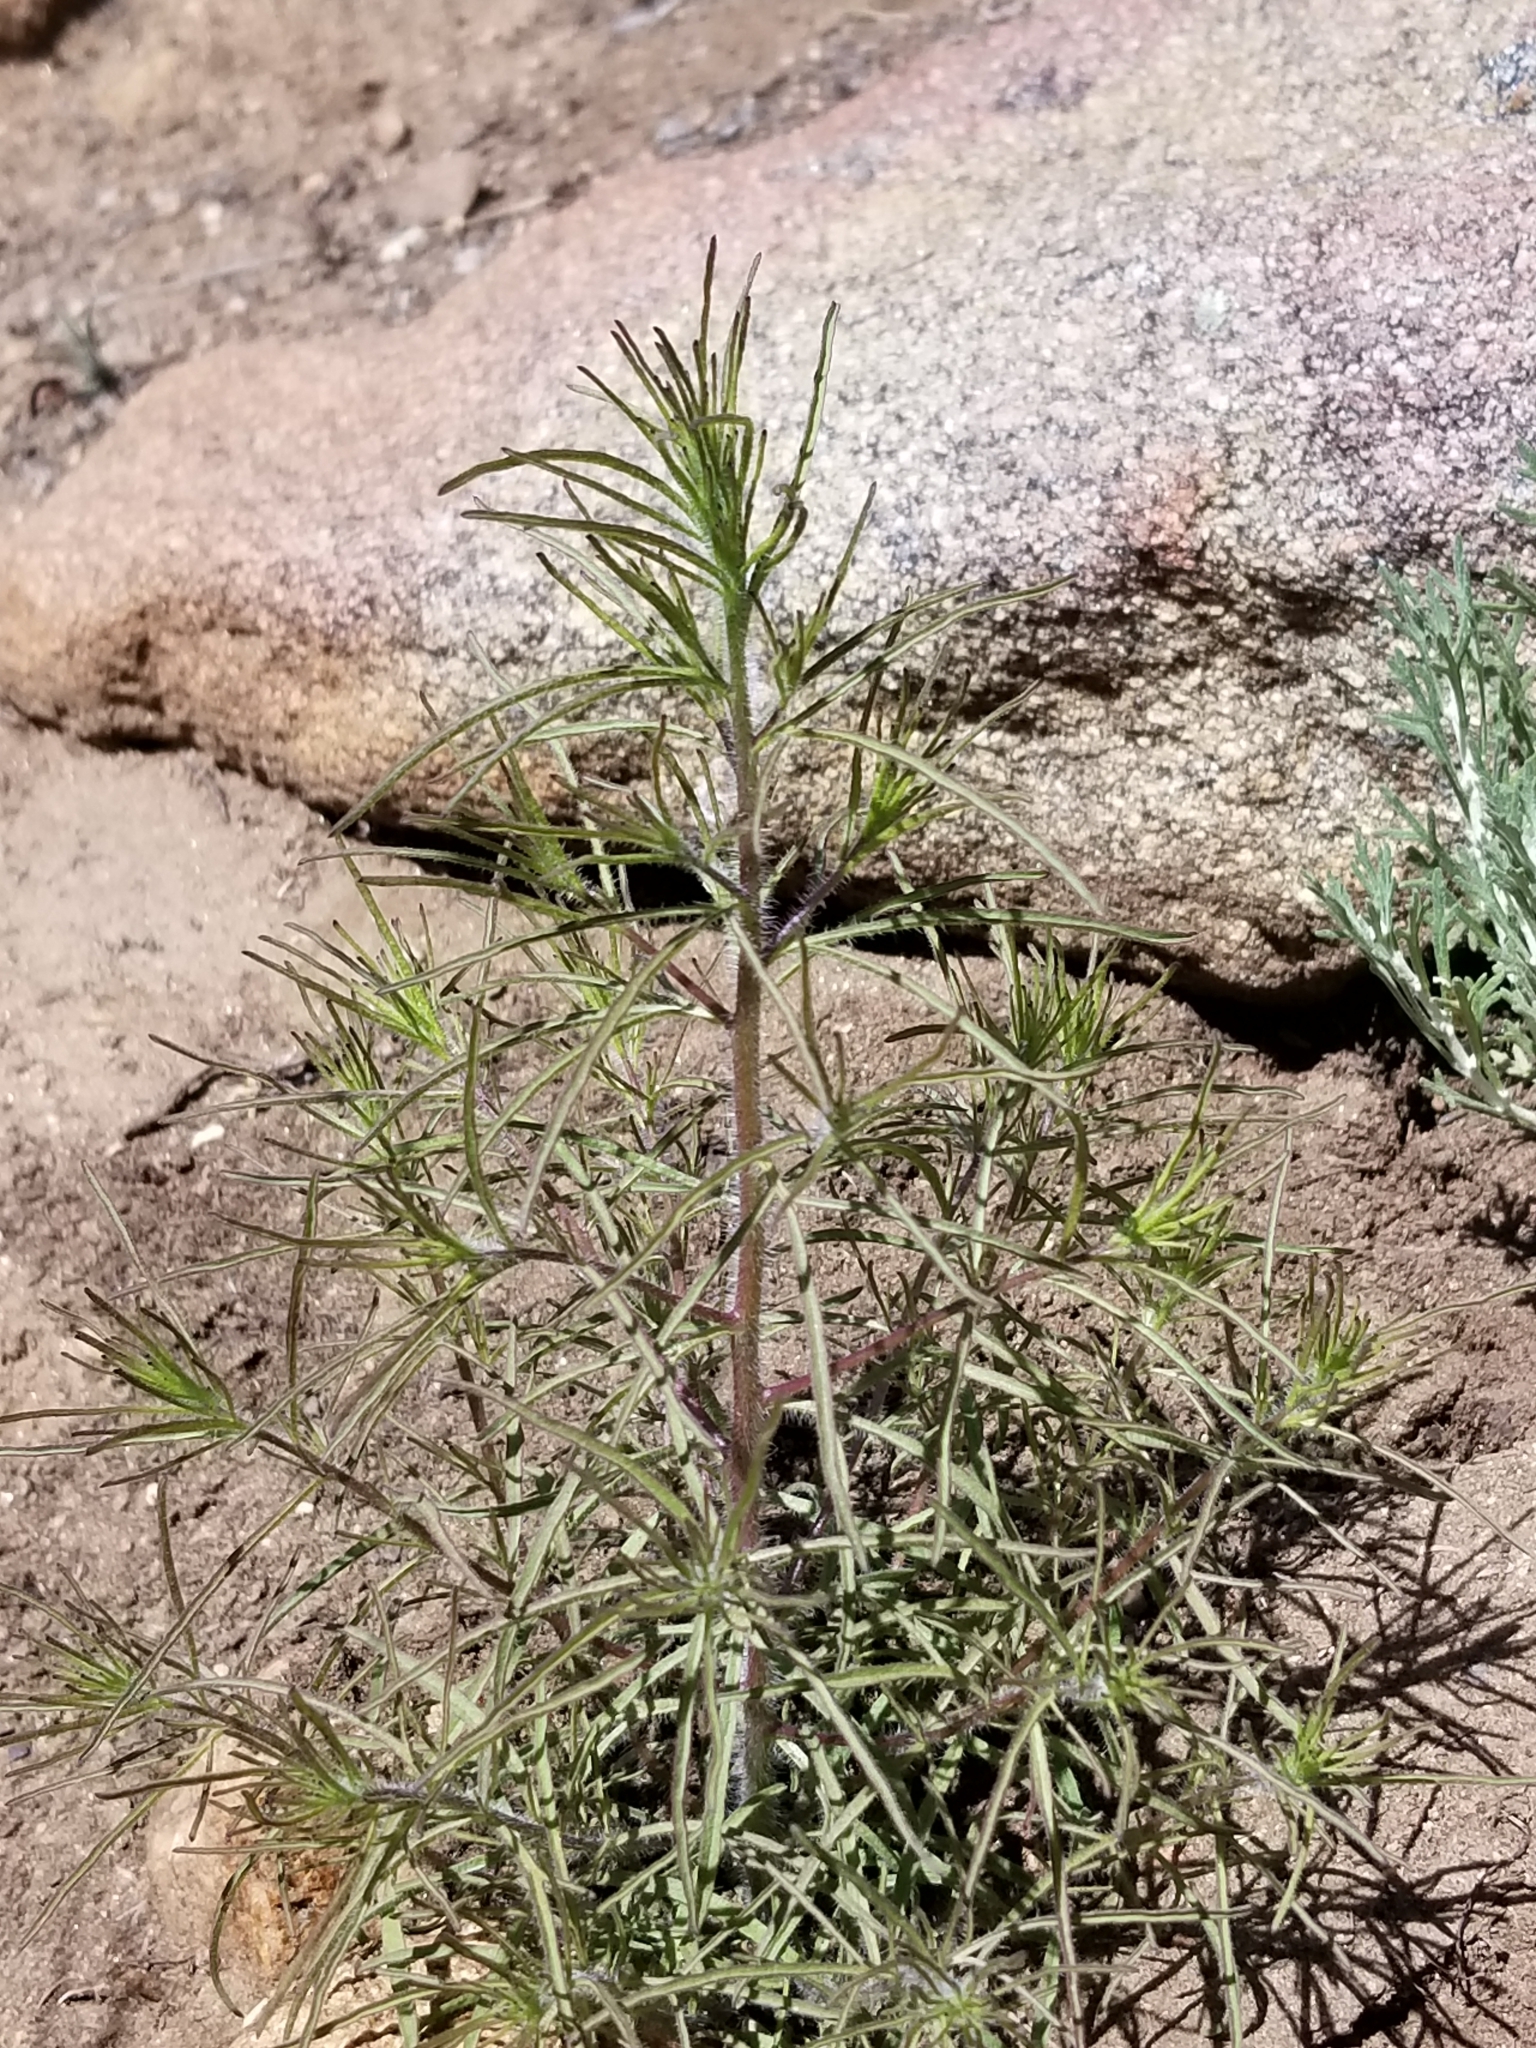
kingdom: Plantae
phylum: Tracheophyta
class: Magnoliopsida
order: Lamiales
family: Orobanchaceae
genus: Cordylanthus
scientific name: Cordylanthus rigidus
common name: Stiff-branch bird's-beak
